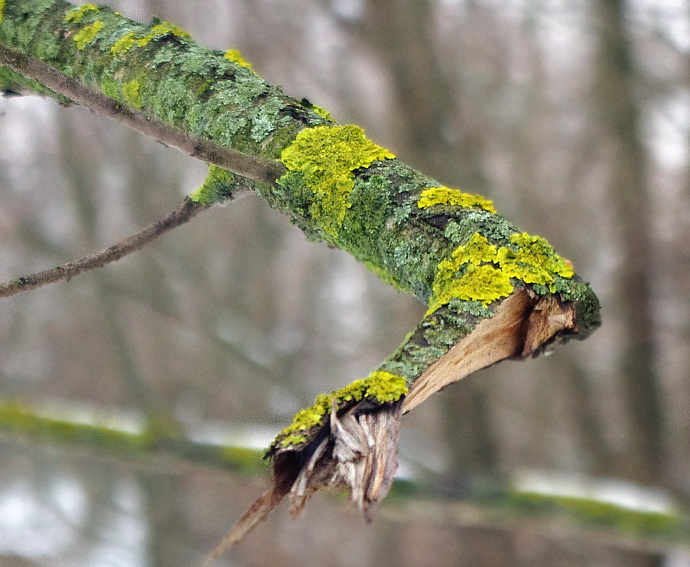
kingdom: Fungi
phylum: Ascomycota
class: Lecanoromycetes
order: Teloschistales
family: Teloschistaceae
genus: Xanthoria
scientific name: Xanthoria parietina
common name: Common orange lichen
